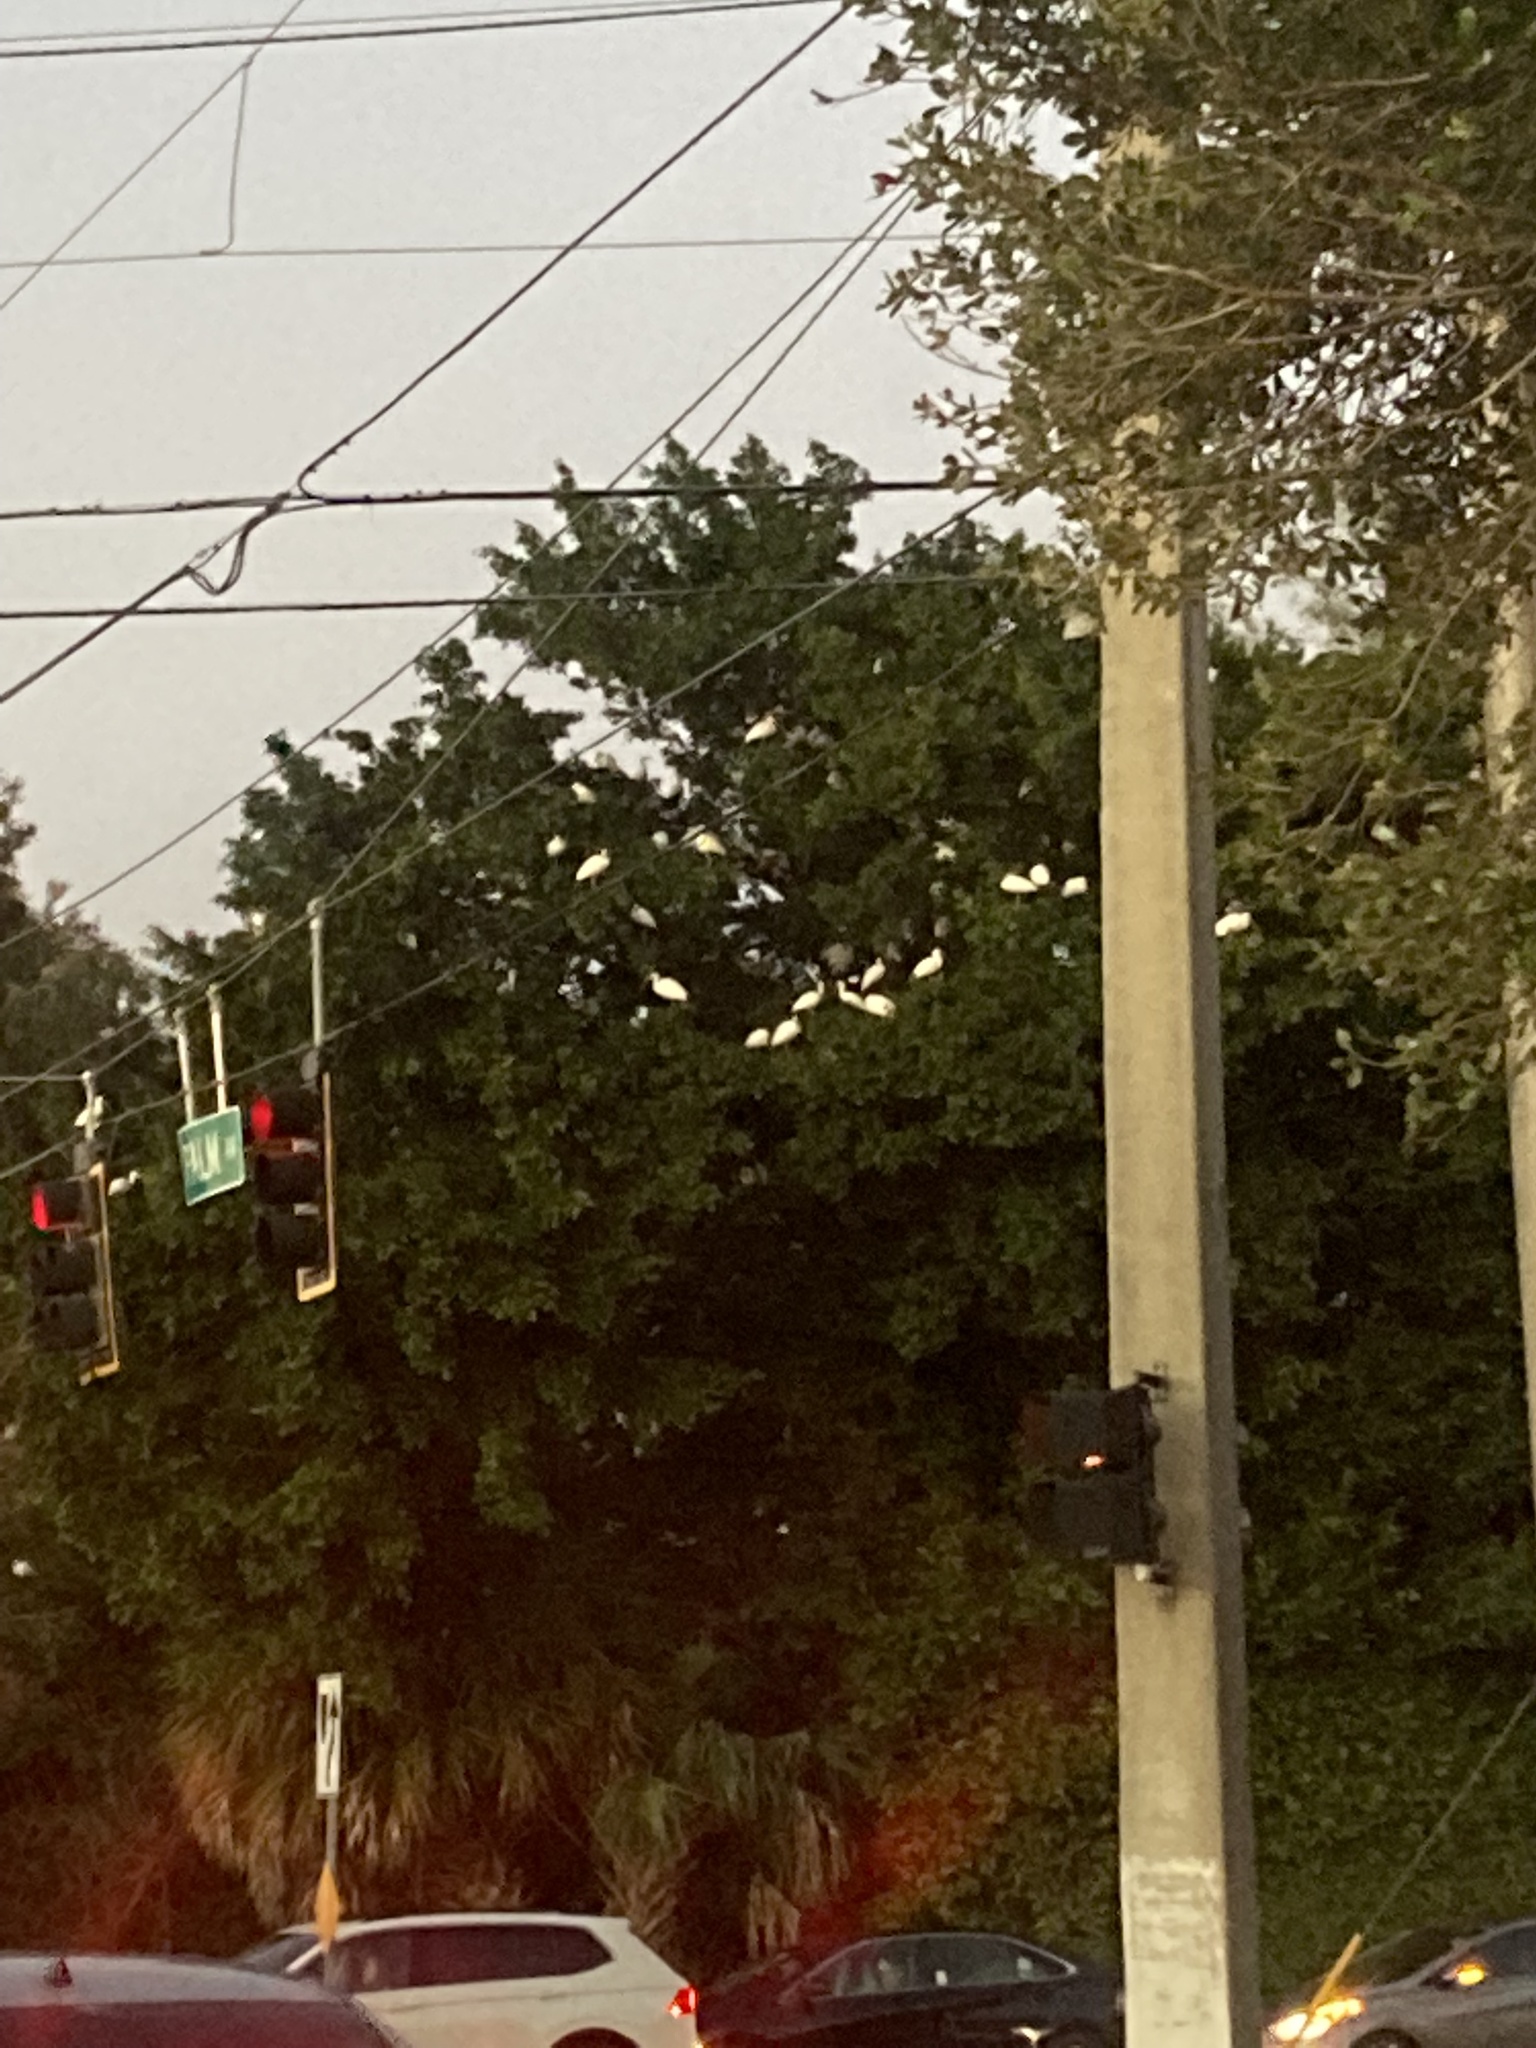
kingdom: Animalia
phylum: Chordata
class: Aves
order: Pelecaniformes
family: Threskiornithidae
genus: Eudocimus
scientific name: Eudocimus albus
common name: White ibis
